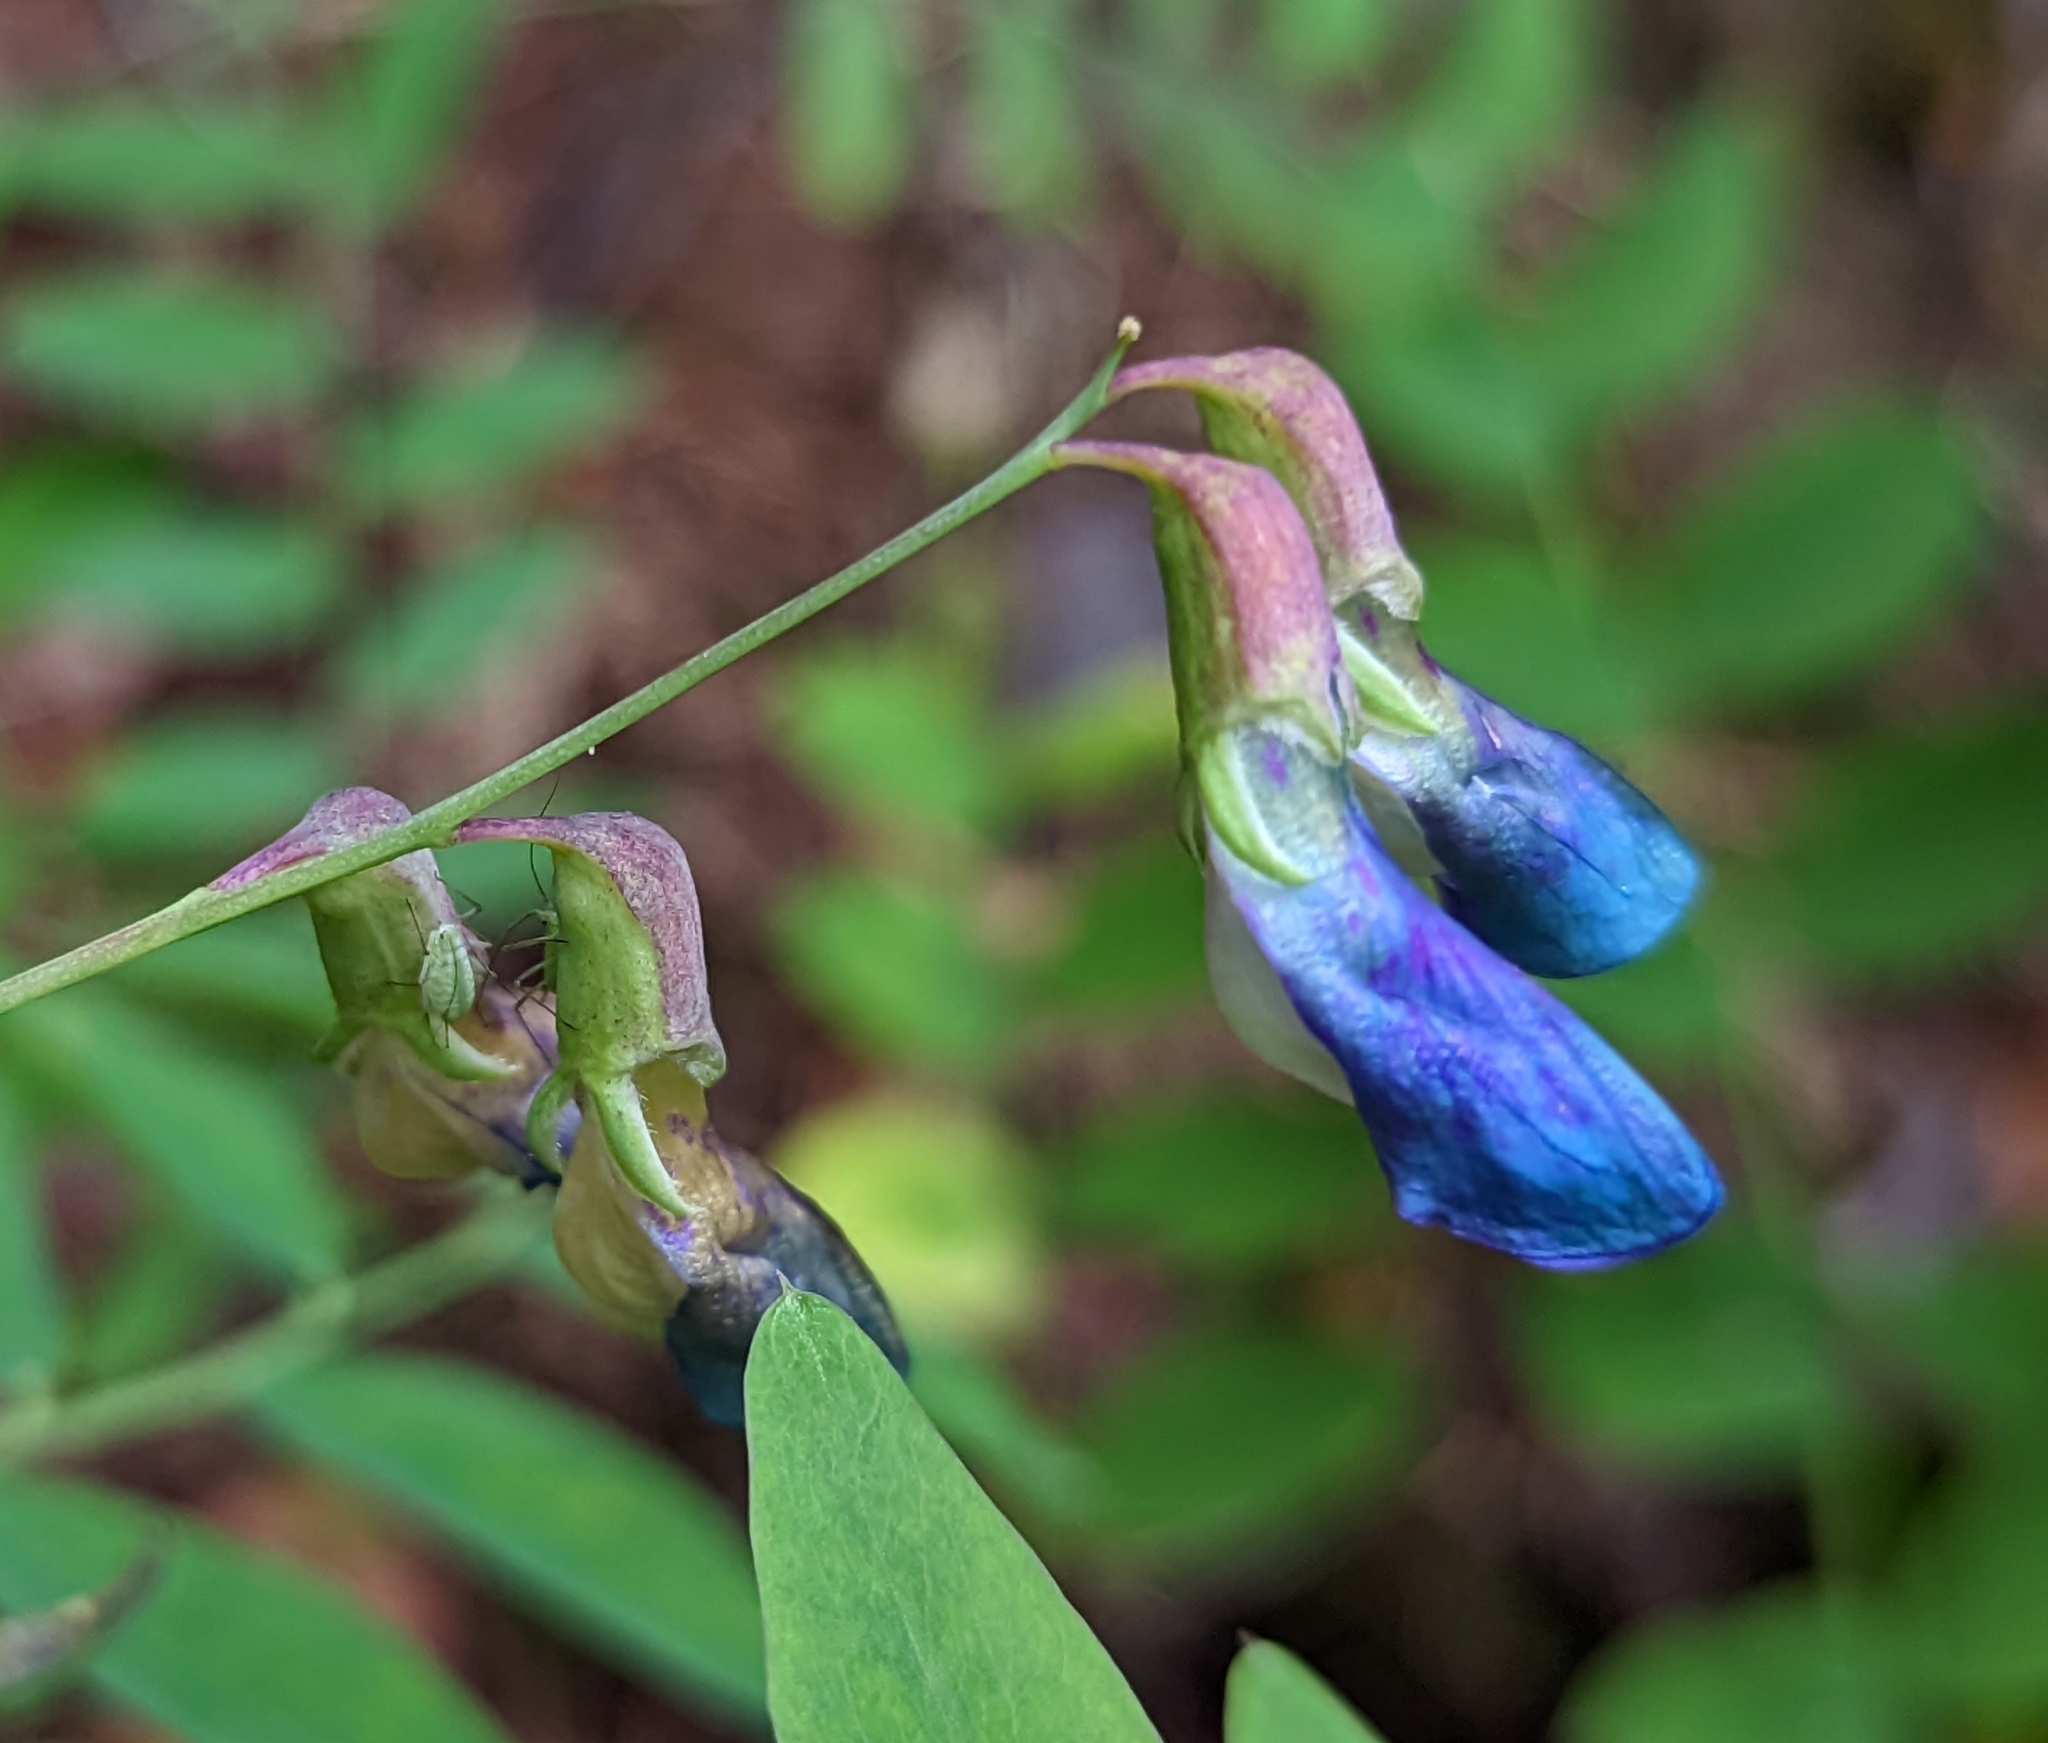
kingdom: Plantae
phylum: Tracheophyta
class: Magnoliopsida
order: Fabales
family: Fabaceae
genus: Lathyrus
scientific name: Lathyrus polyphyllus
